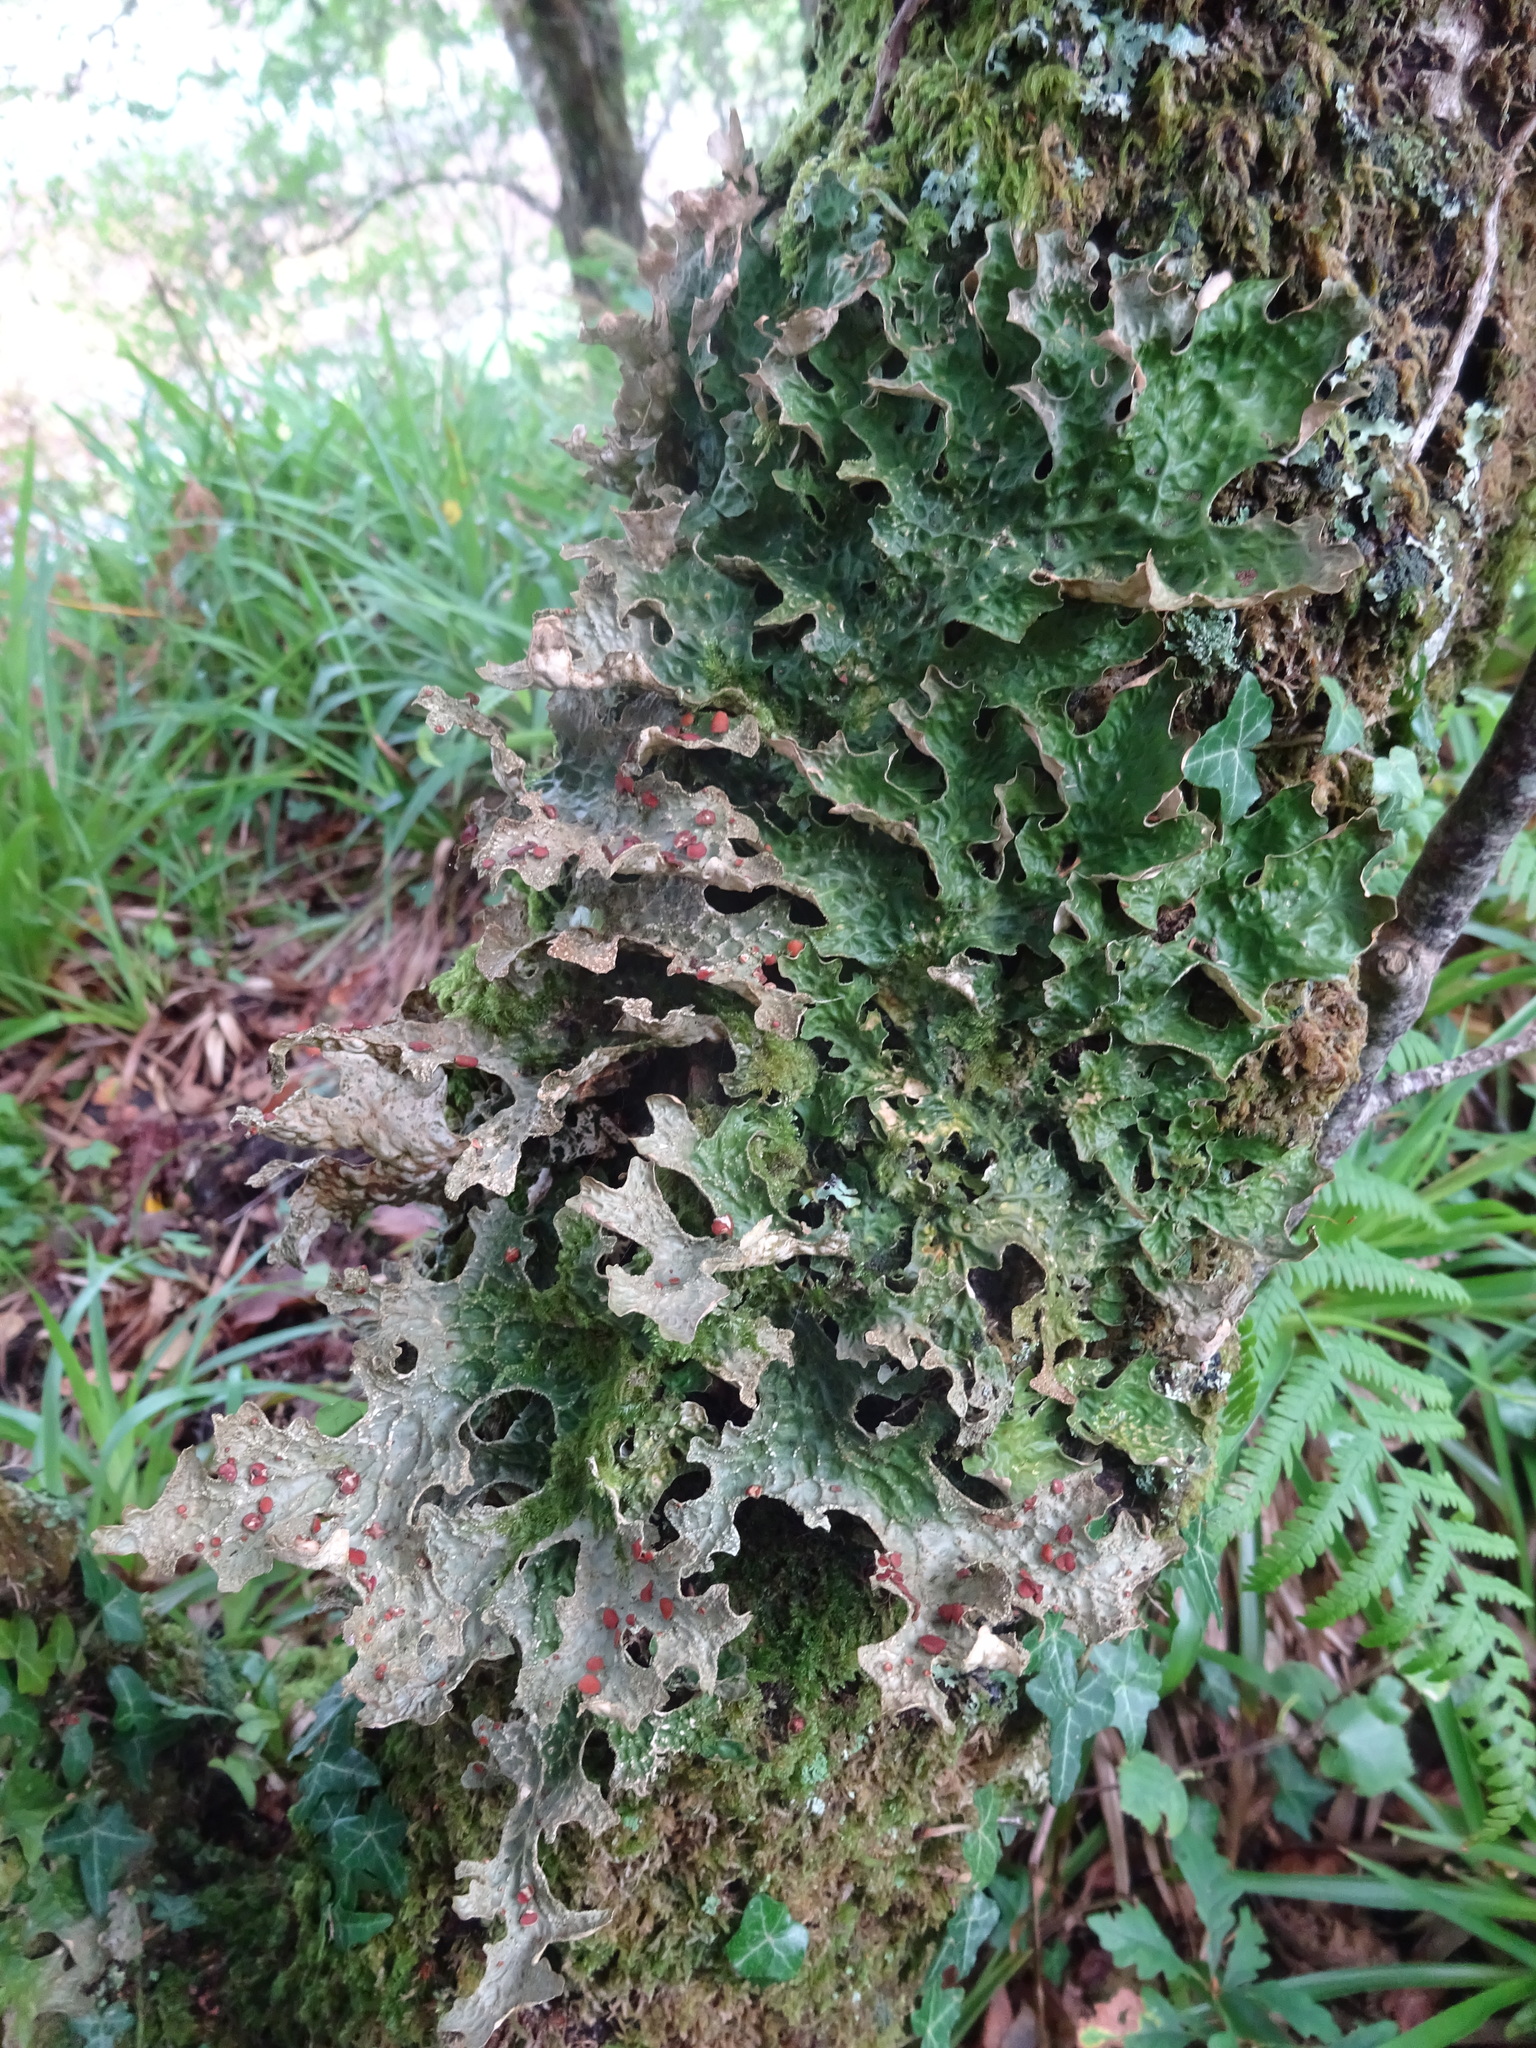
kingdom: Fungi
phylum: Ascomycota
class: Lecanoromycetes
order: Peltigerales
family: Lobariaceae
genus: Lobaria
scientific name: Lobaria pulmonaria
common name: Lungwort
